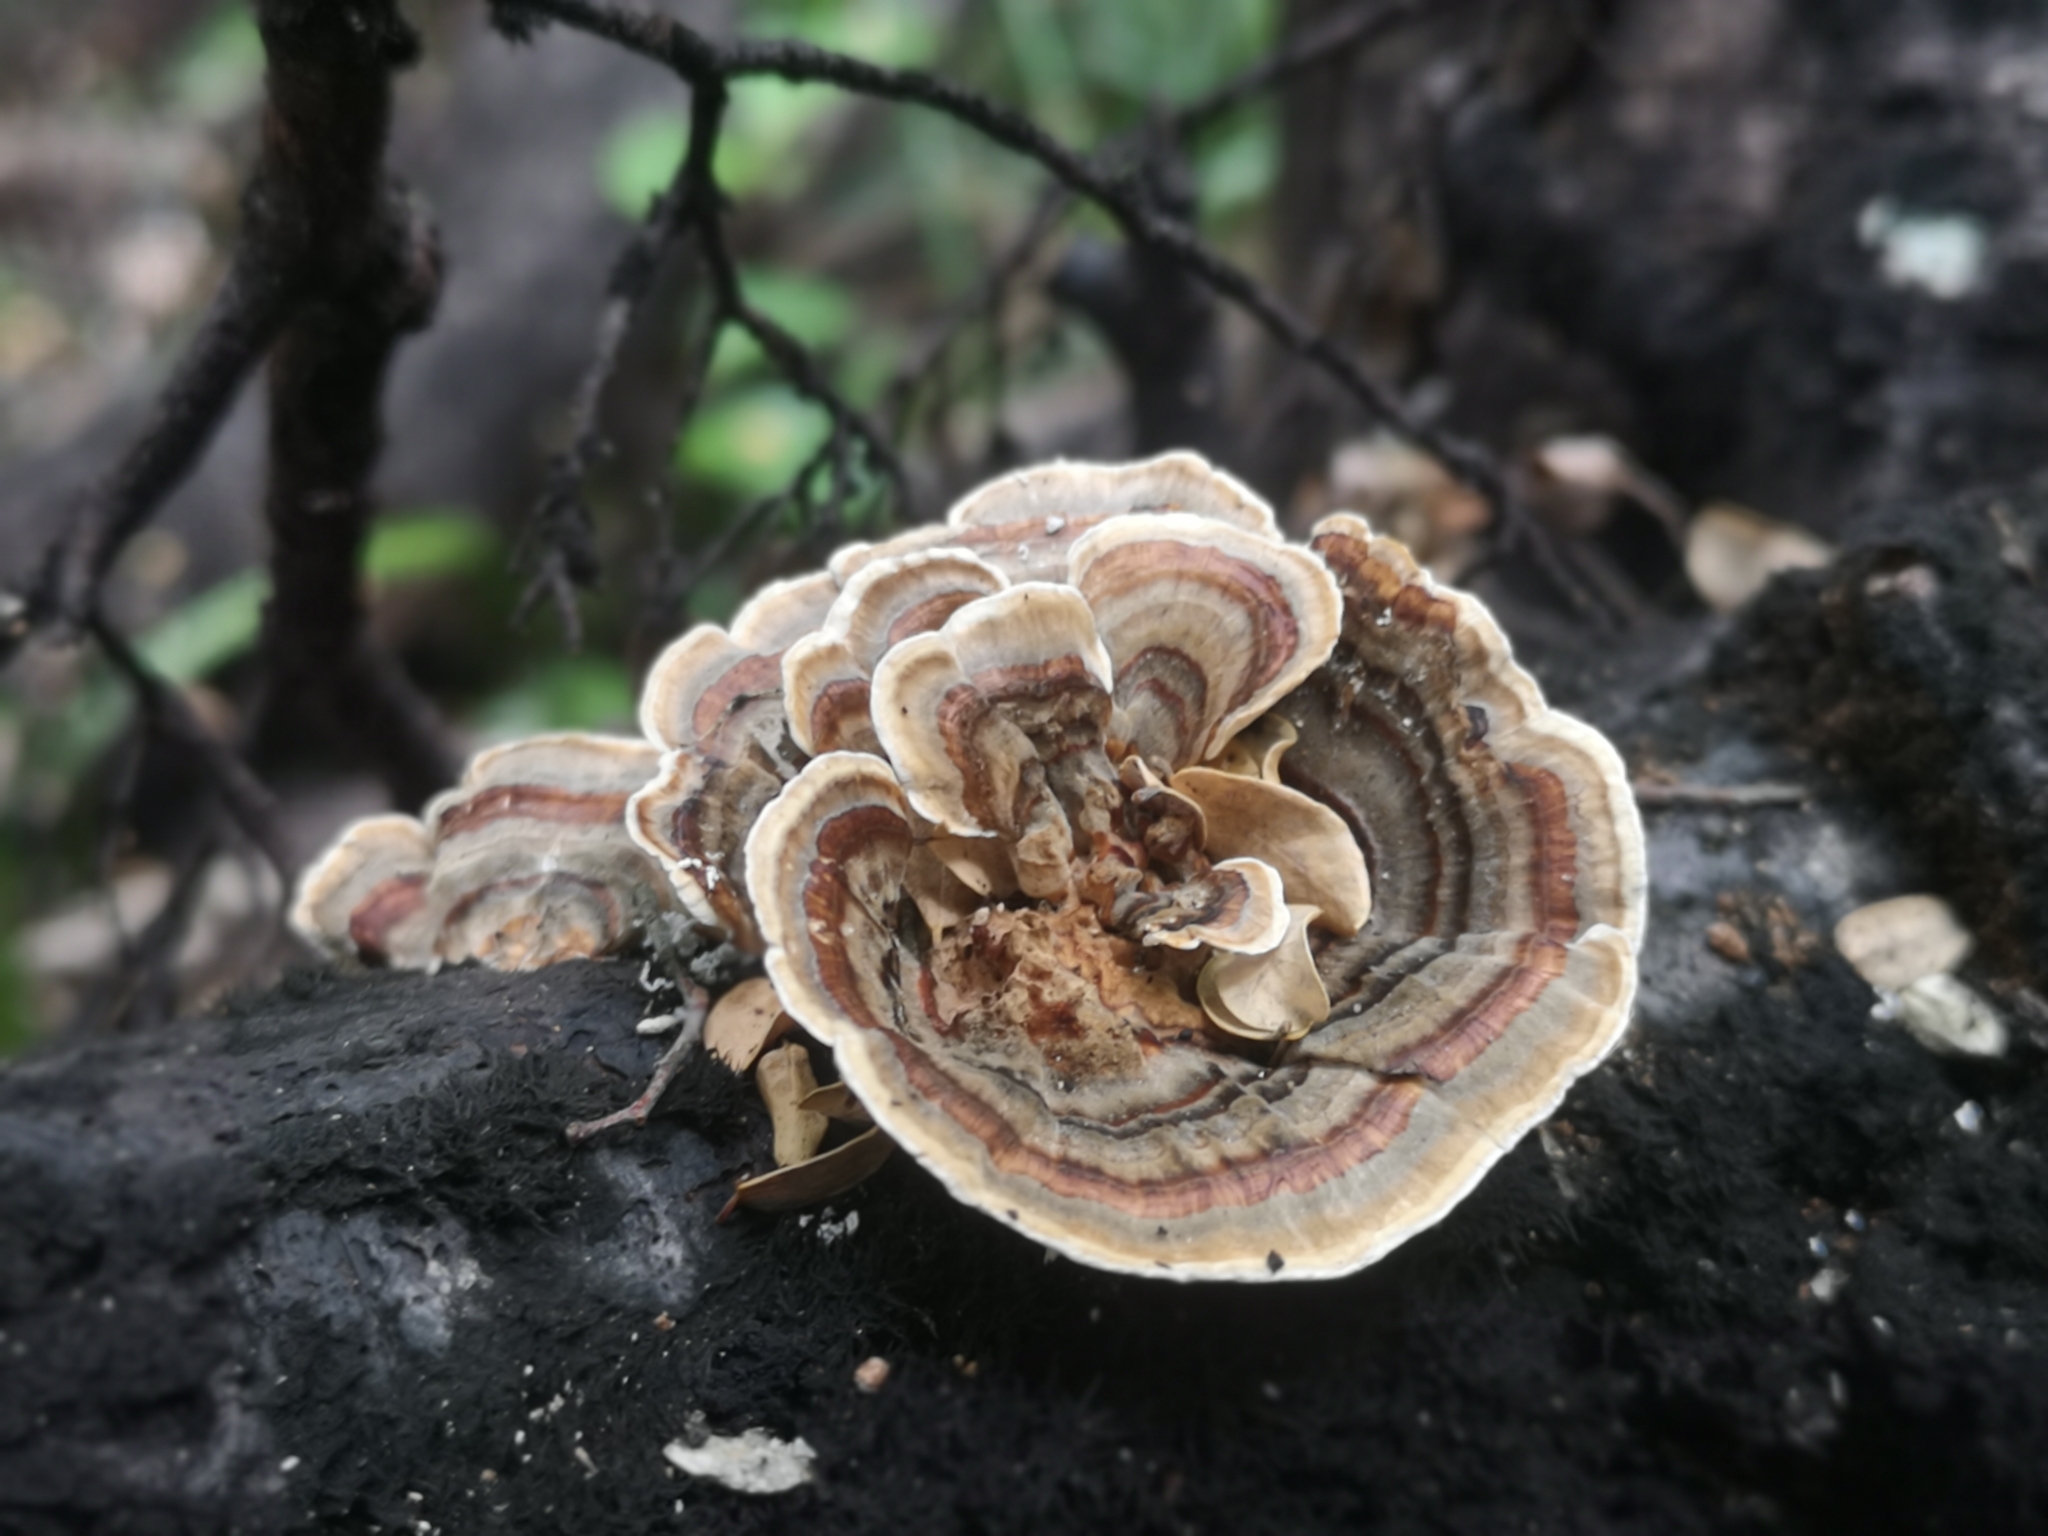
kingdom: Fungi
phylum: Basidiomycota
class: Agaricomycetes
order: Polyporales
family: Polyporaceae
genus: Trametes
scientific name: Trametes versicolor
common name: Turkeytail
